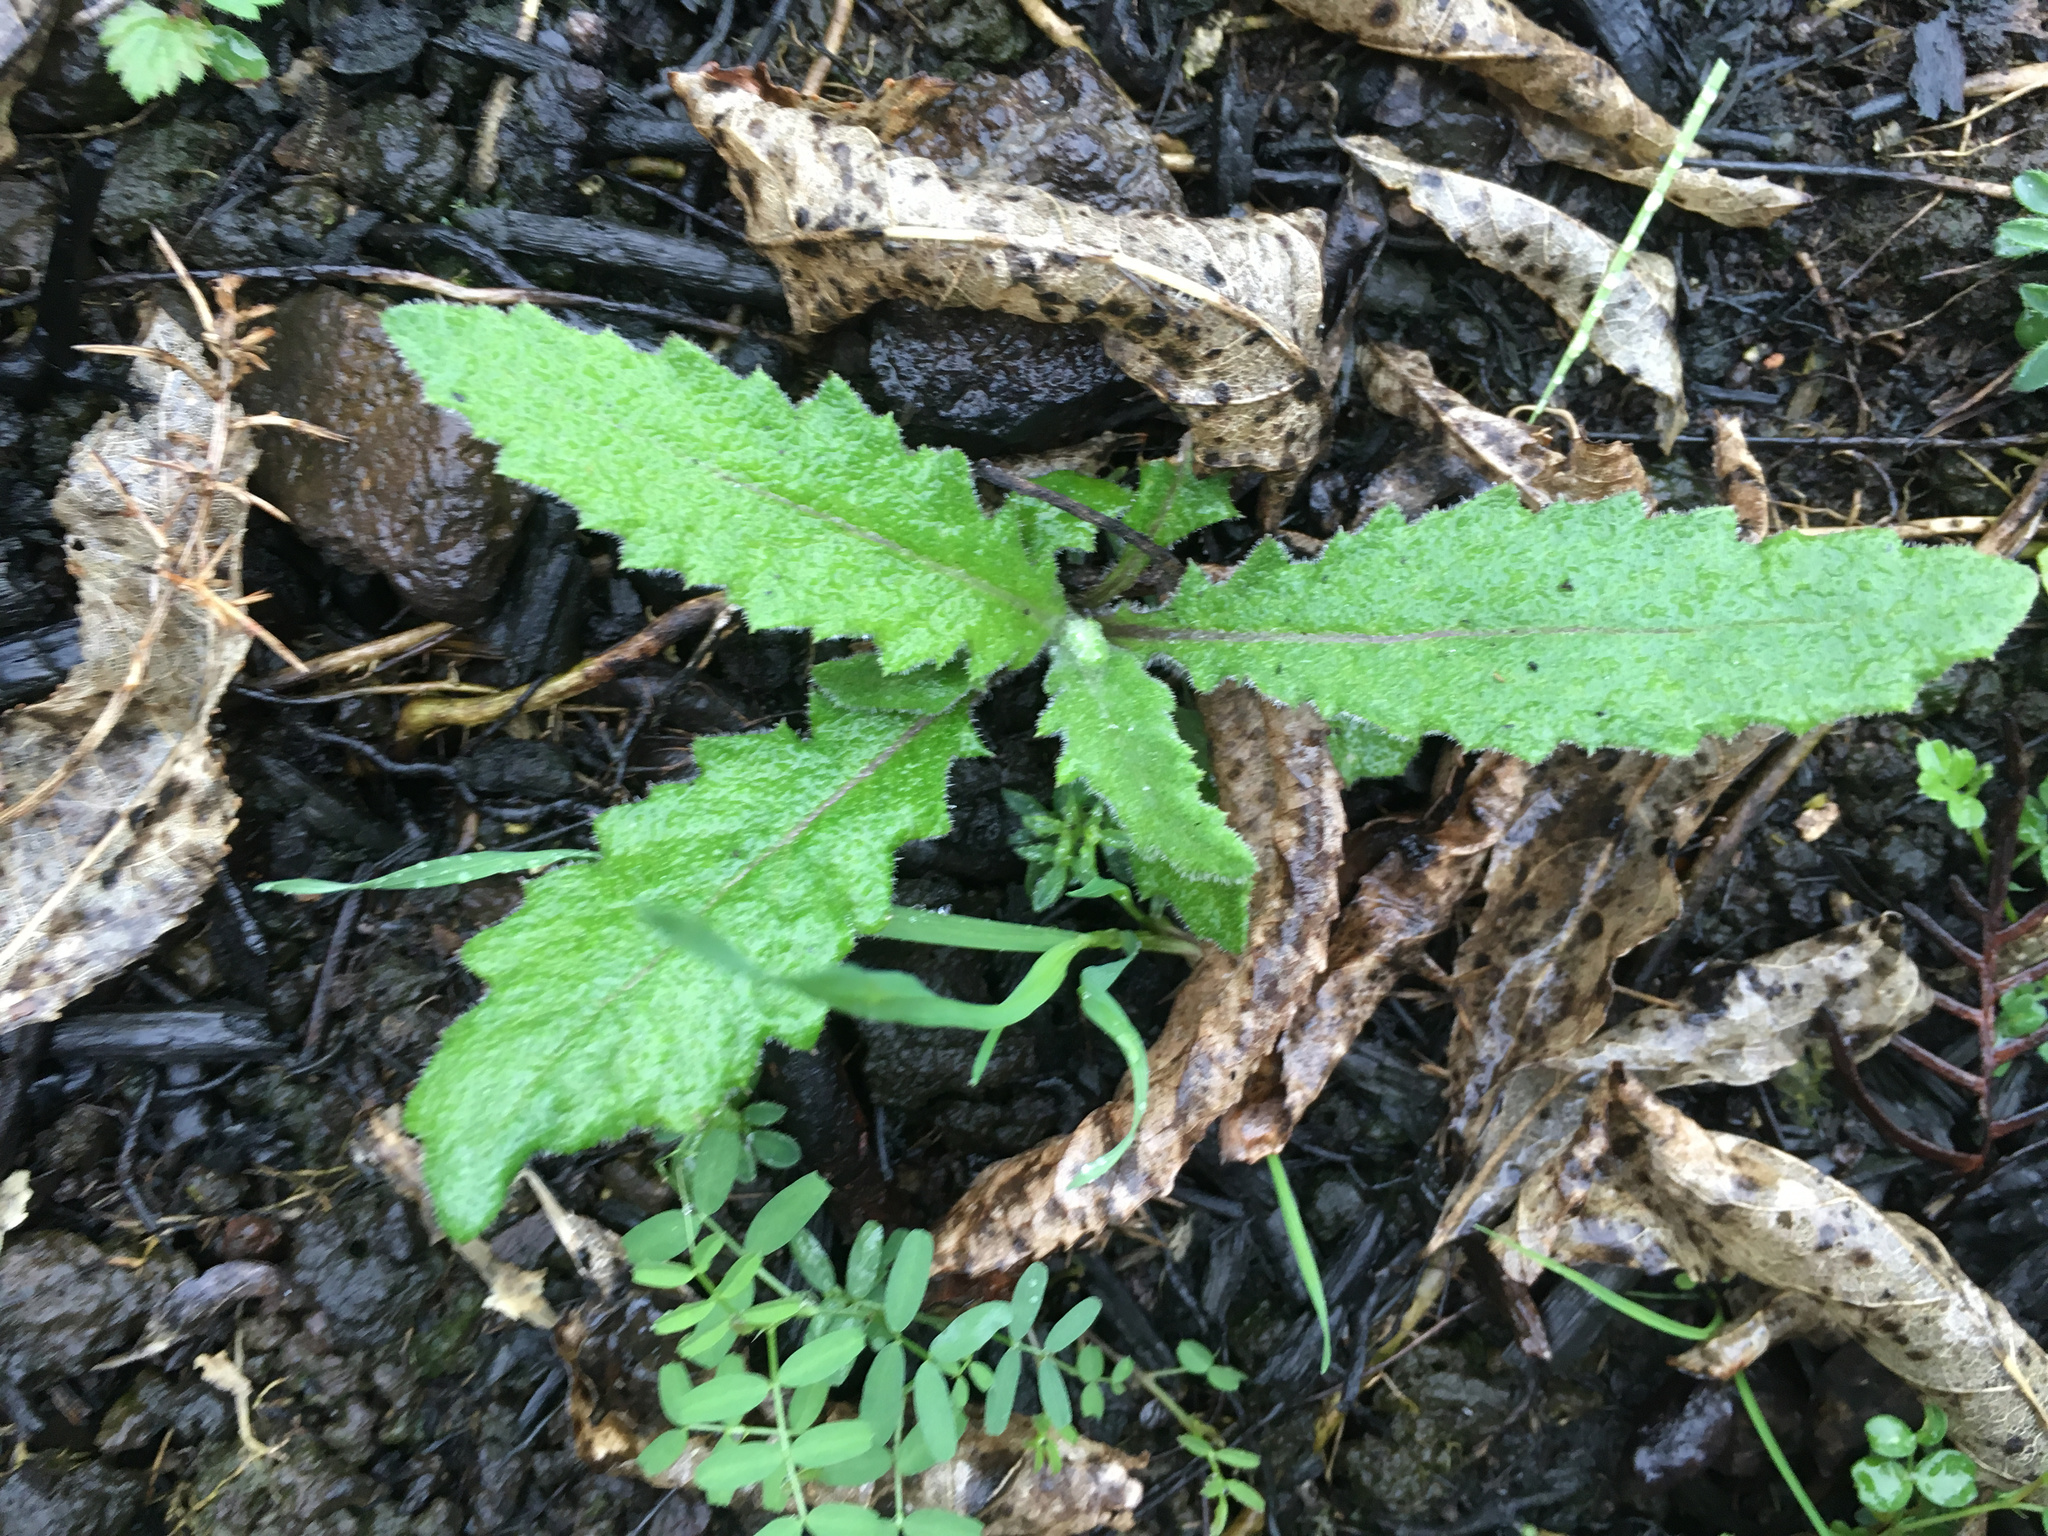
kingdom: Plantae
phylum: Tracheophyta
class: Magnoliopsida
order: Asterales
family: Asteraceae
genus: Senecio
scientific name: Senecio minimus
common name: Toothed fireweed
